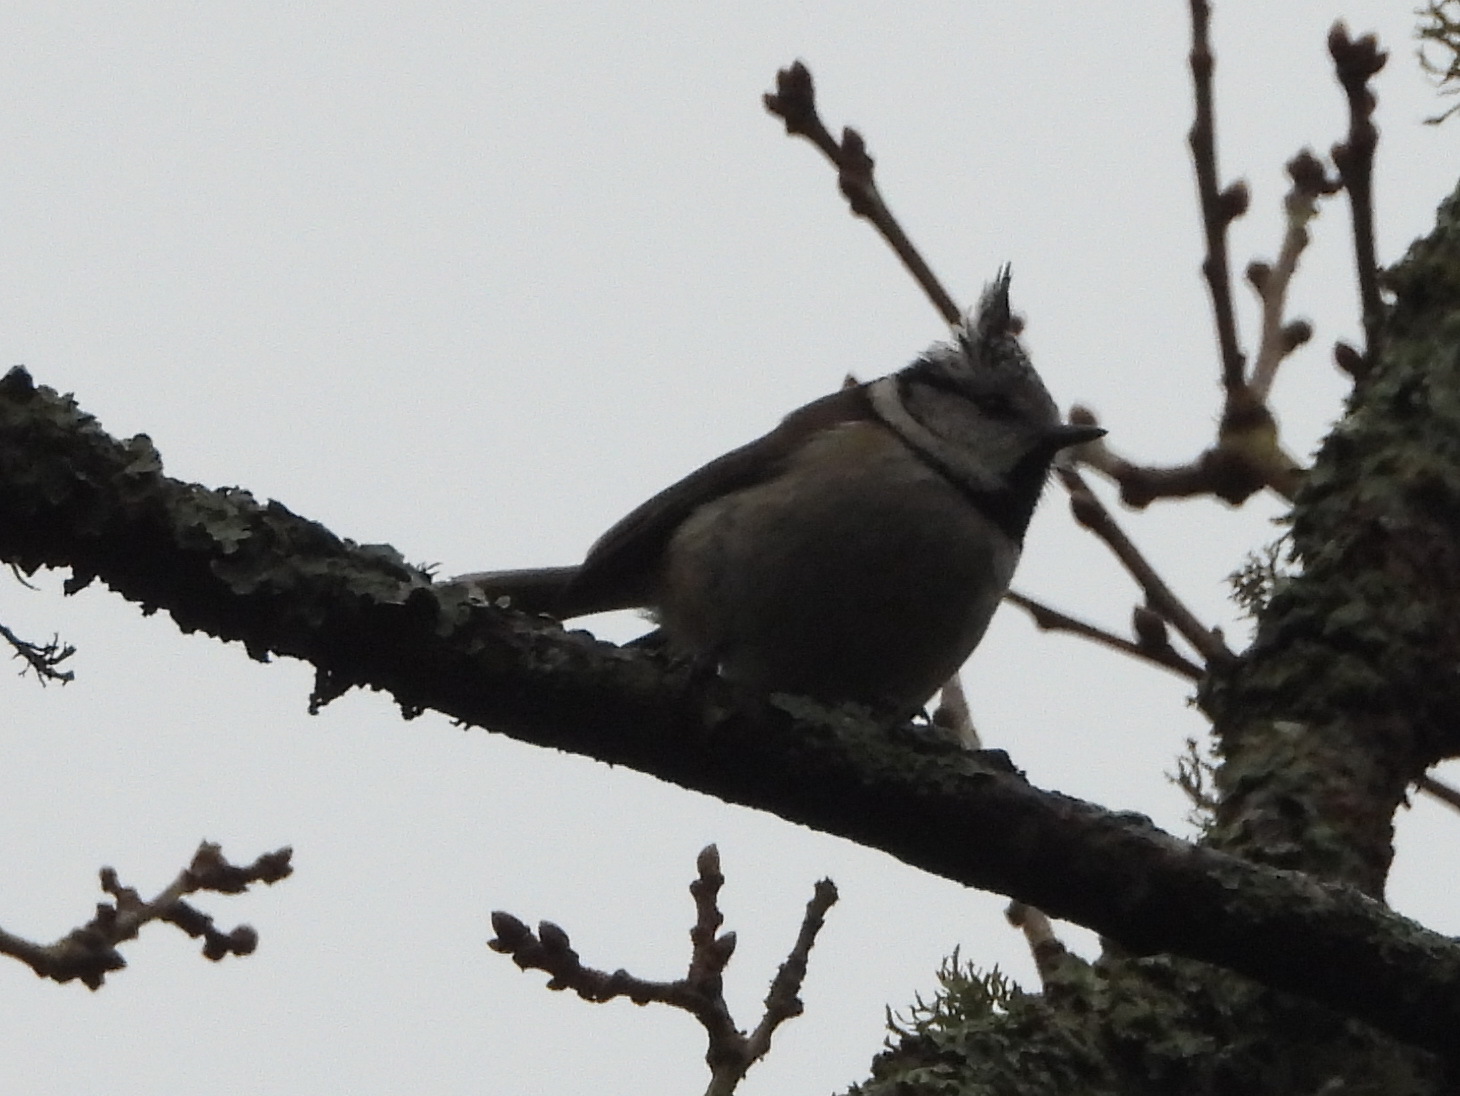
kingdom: Animalia
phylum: Chordata
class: Aves
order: Passeriformes
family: Paridae
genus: Lophophanes
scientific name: Lophophanes cristatus
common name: European crested tit
